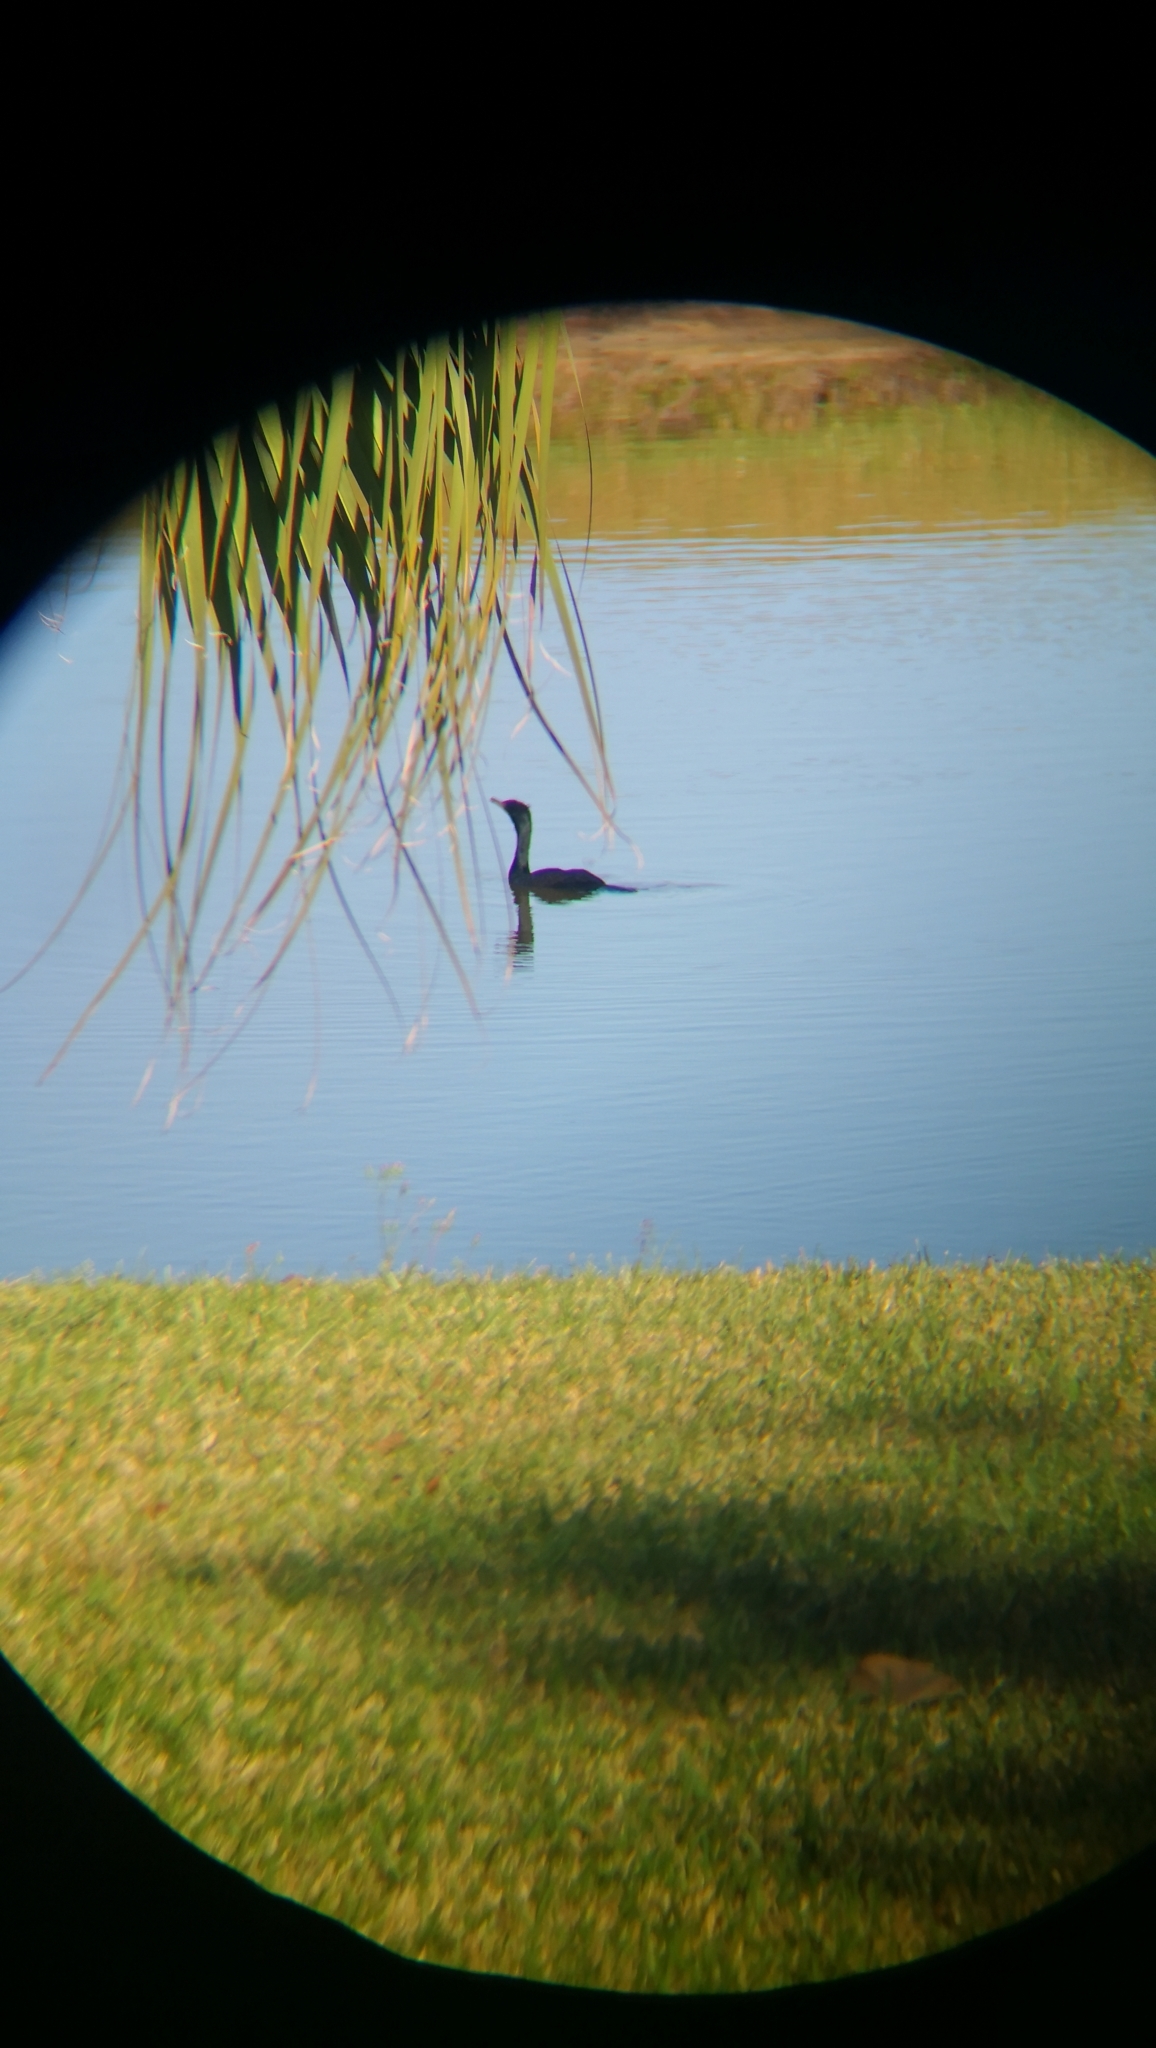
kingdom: Animalia
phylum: Chordata
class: Aves
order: Suliformes
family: Phalacrocoracidae
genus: Phalacrocorax
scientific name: Phalacrocorax auritus
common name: Double-crested cormorant
